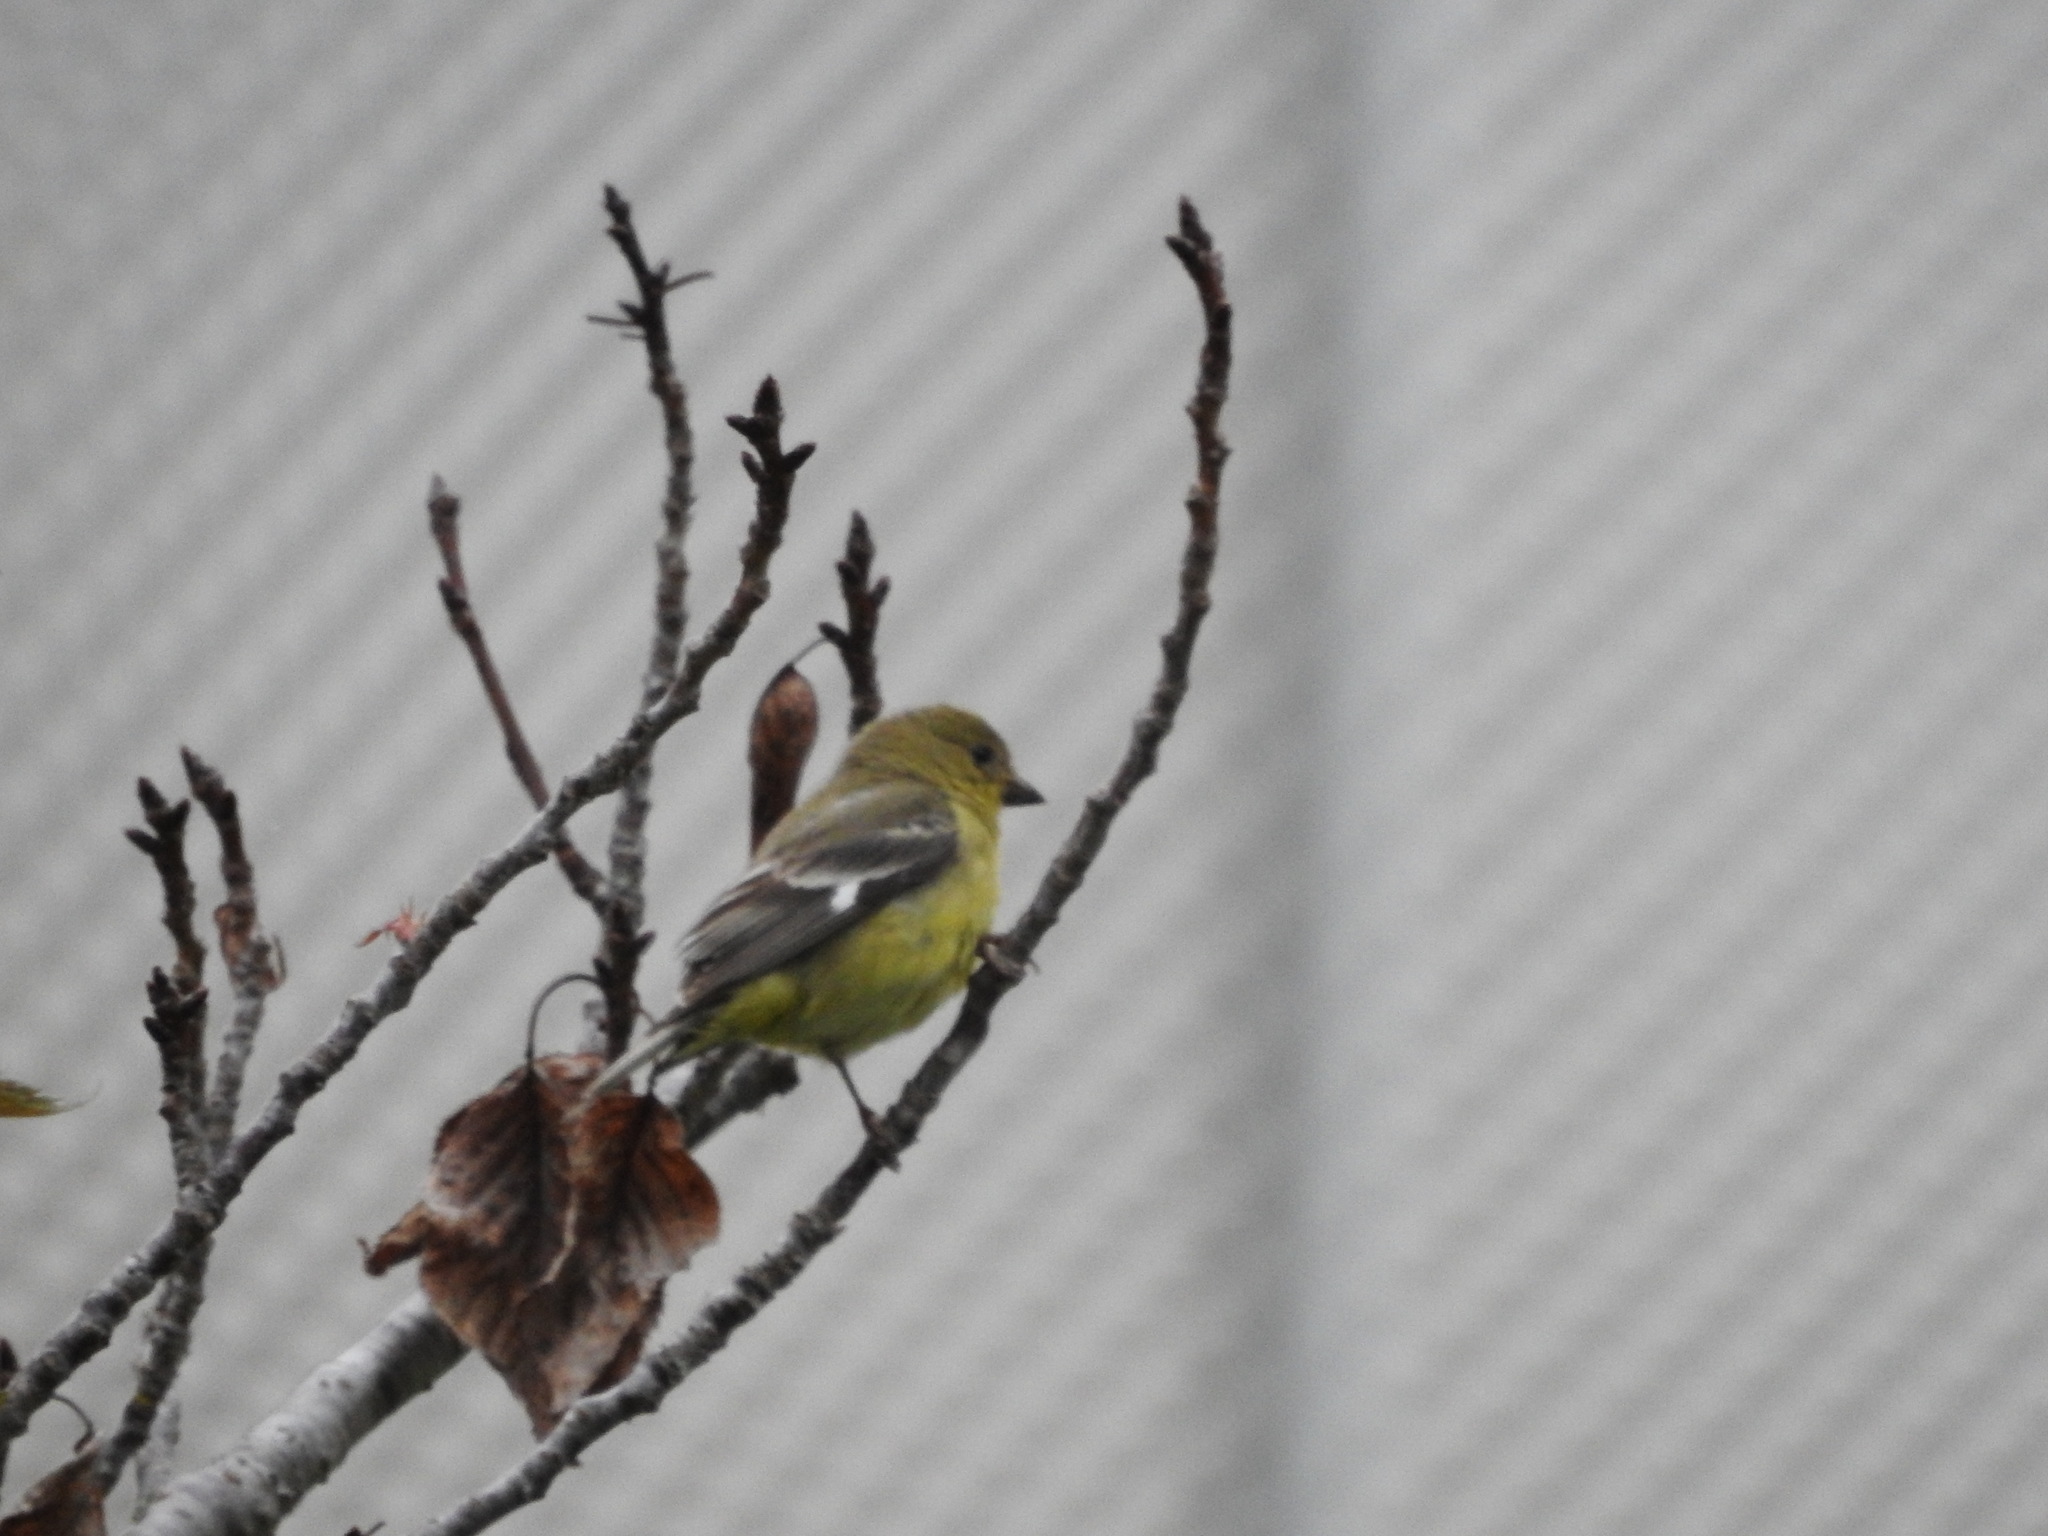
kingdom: Animalia
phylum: Chordata
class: Aves
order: Passeriformes
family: Fringillidae
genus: Spinus
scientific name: Spinus psaltria
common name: Lesser goldfinch
